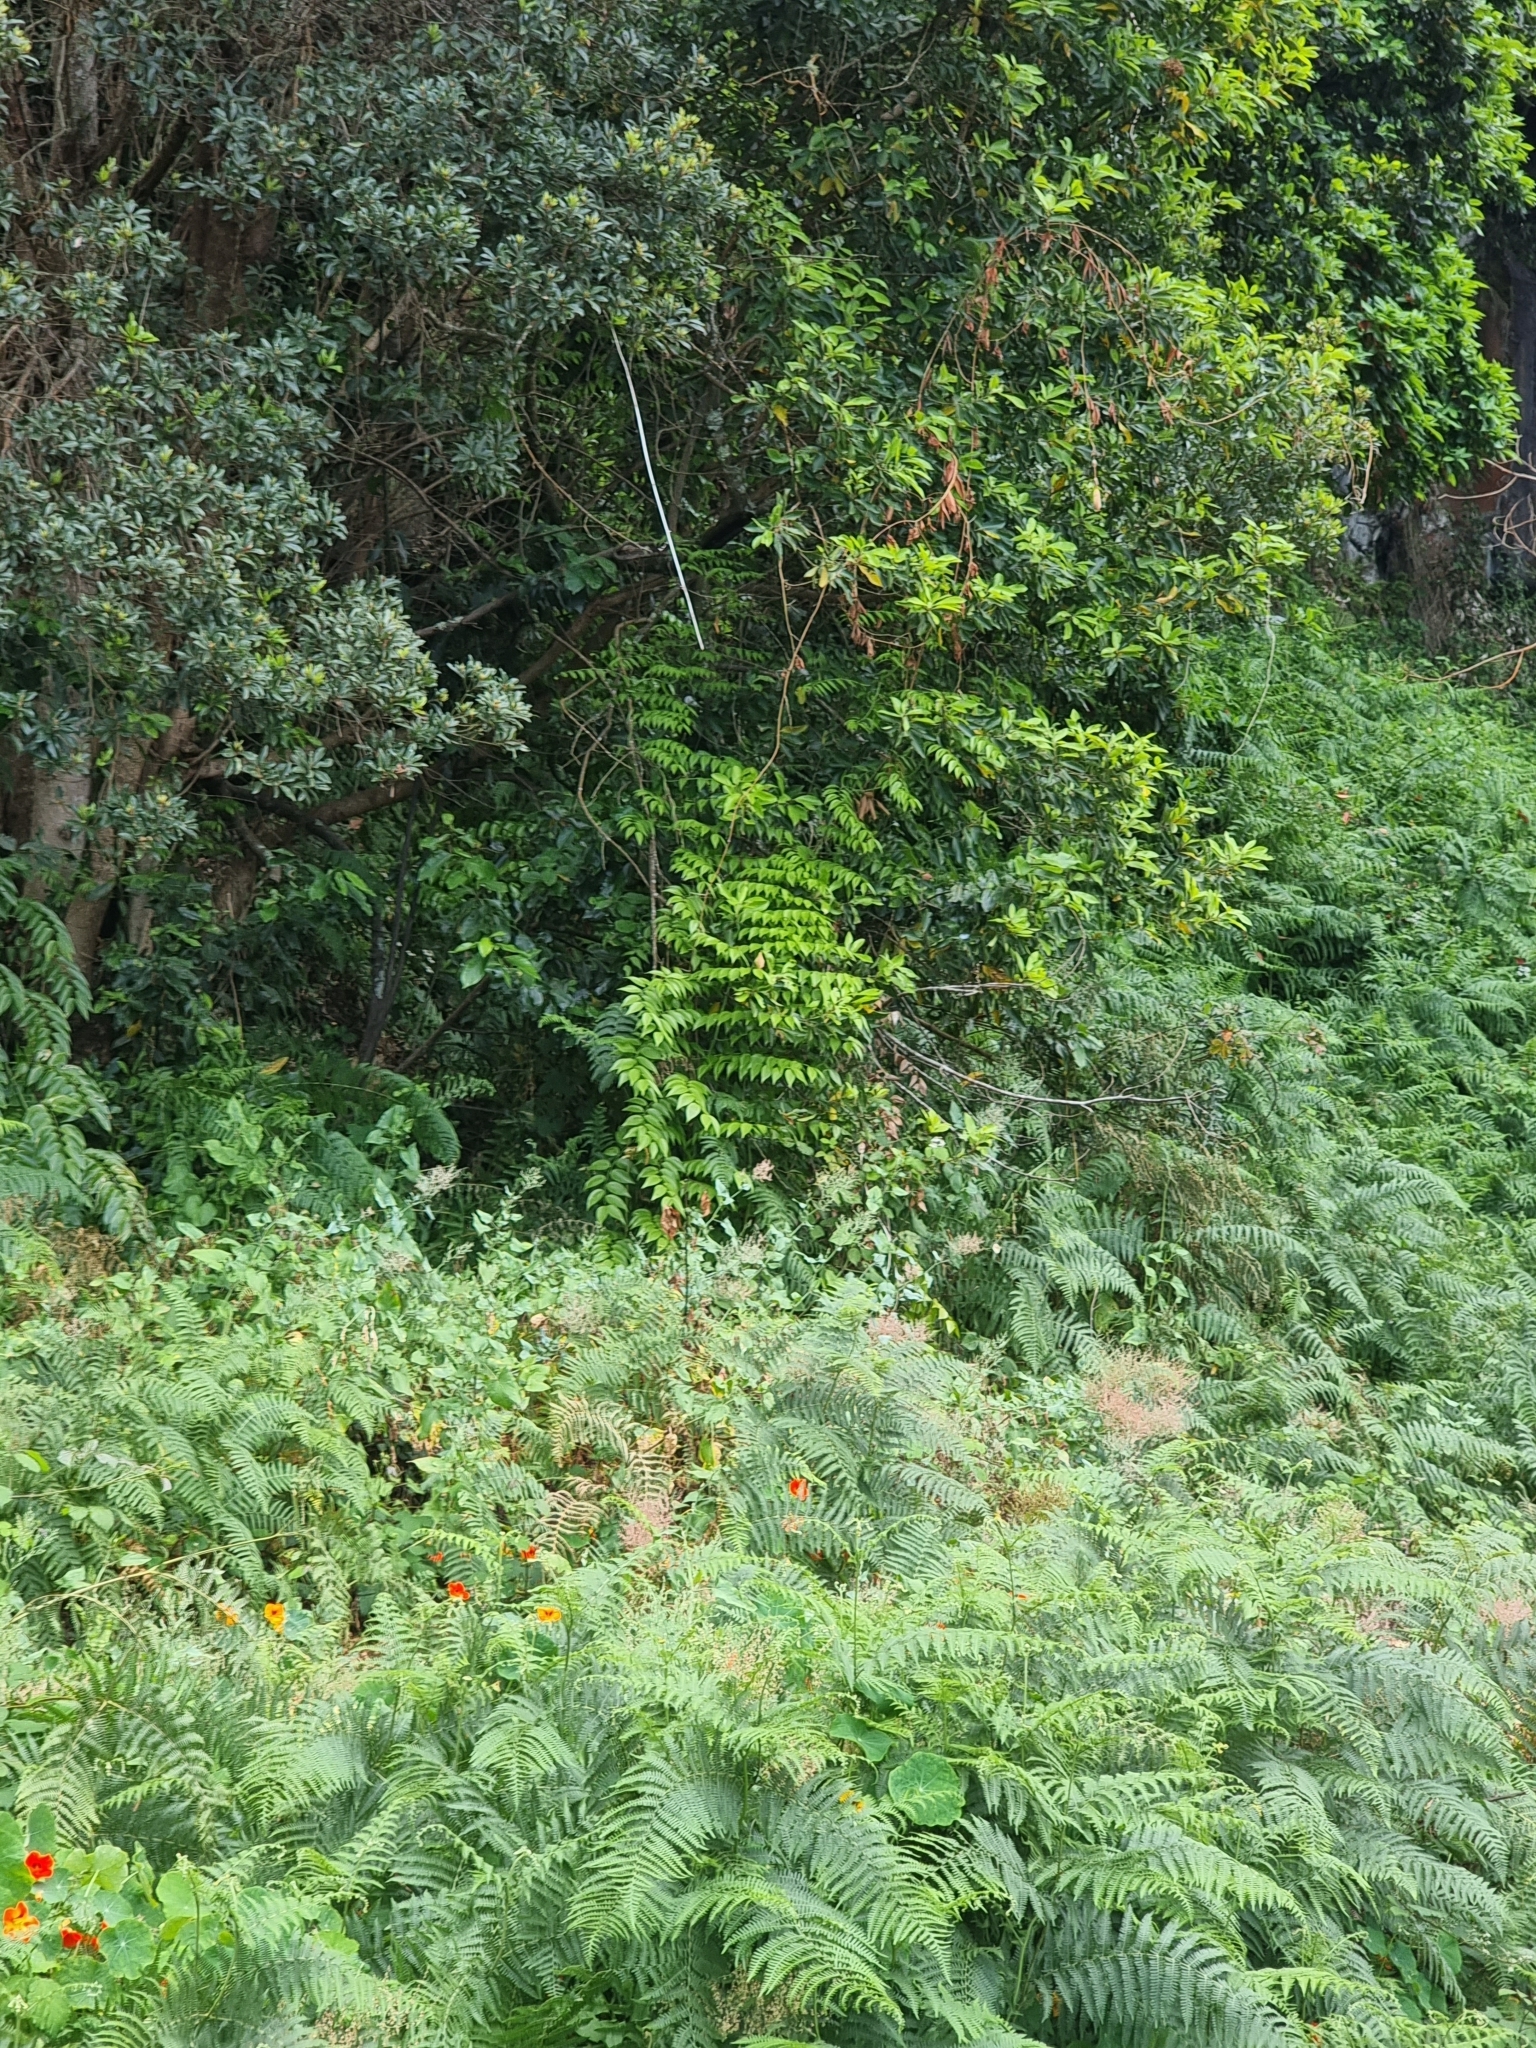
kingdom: Plantae
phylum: Tracheophyta
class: Liliopsida
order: Asparagales
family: Asparagaceae
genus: Semele
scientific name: Semele androgyna
